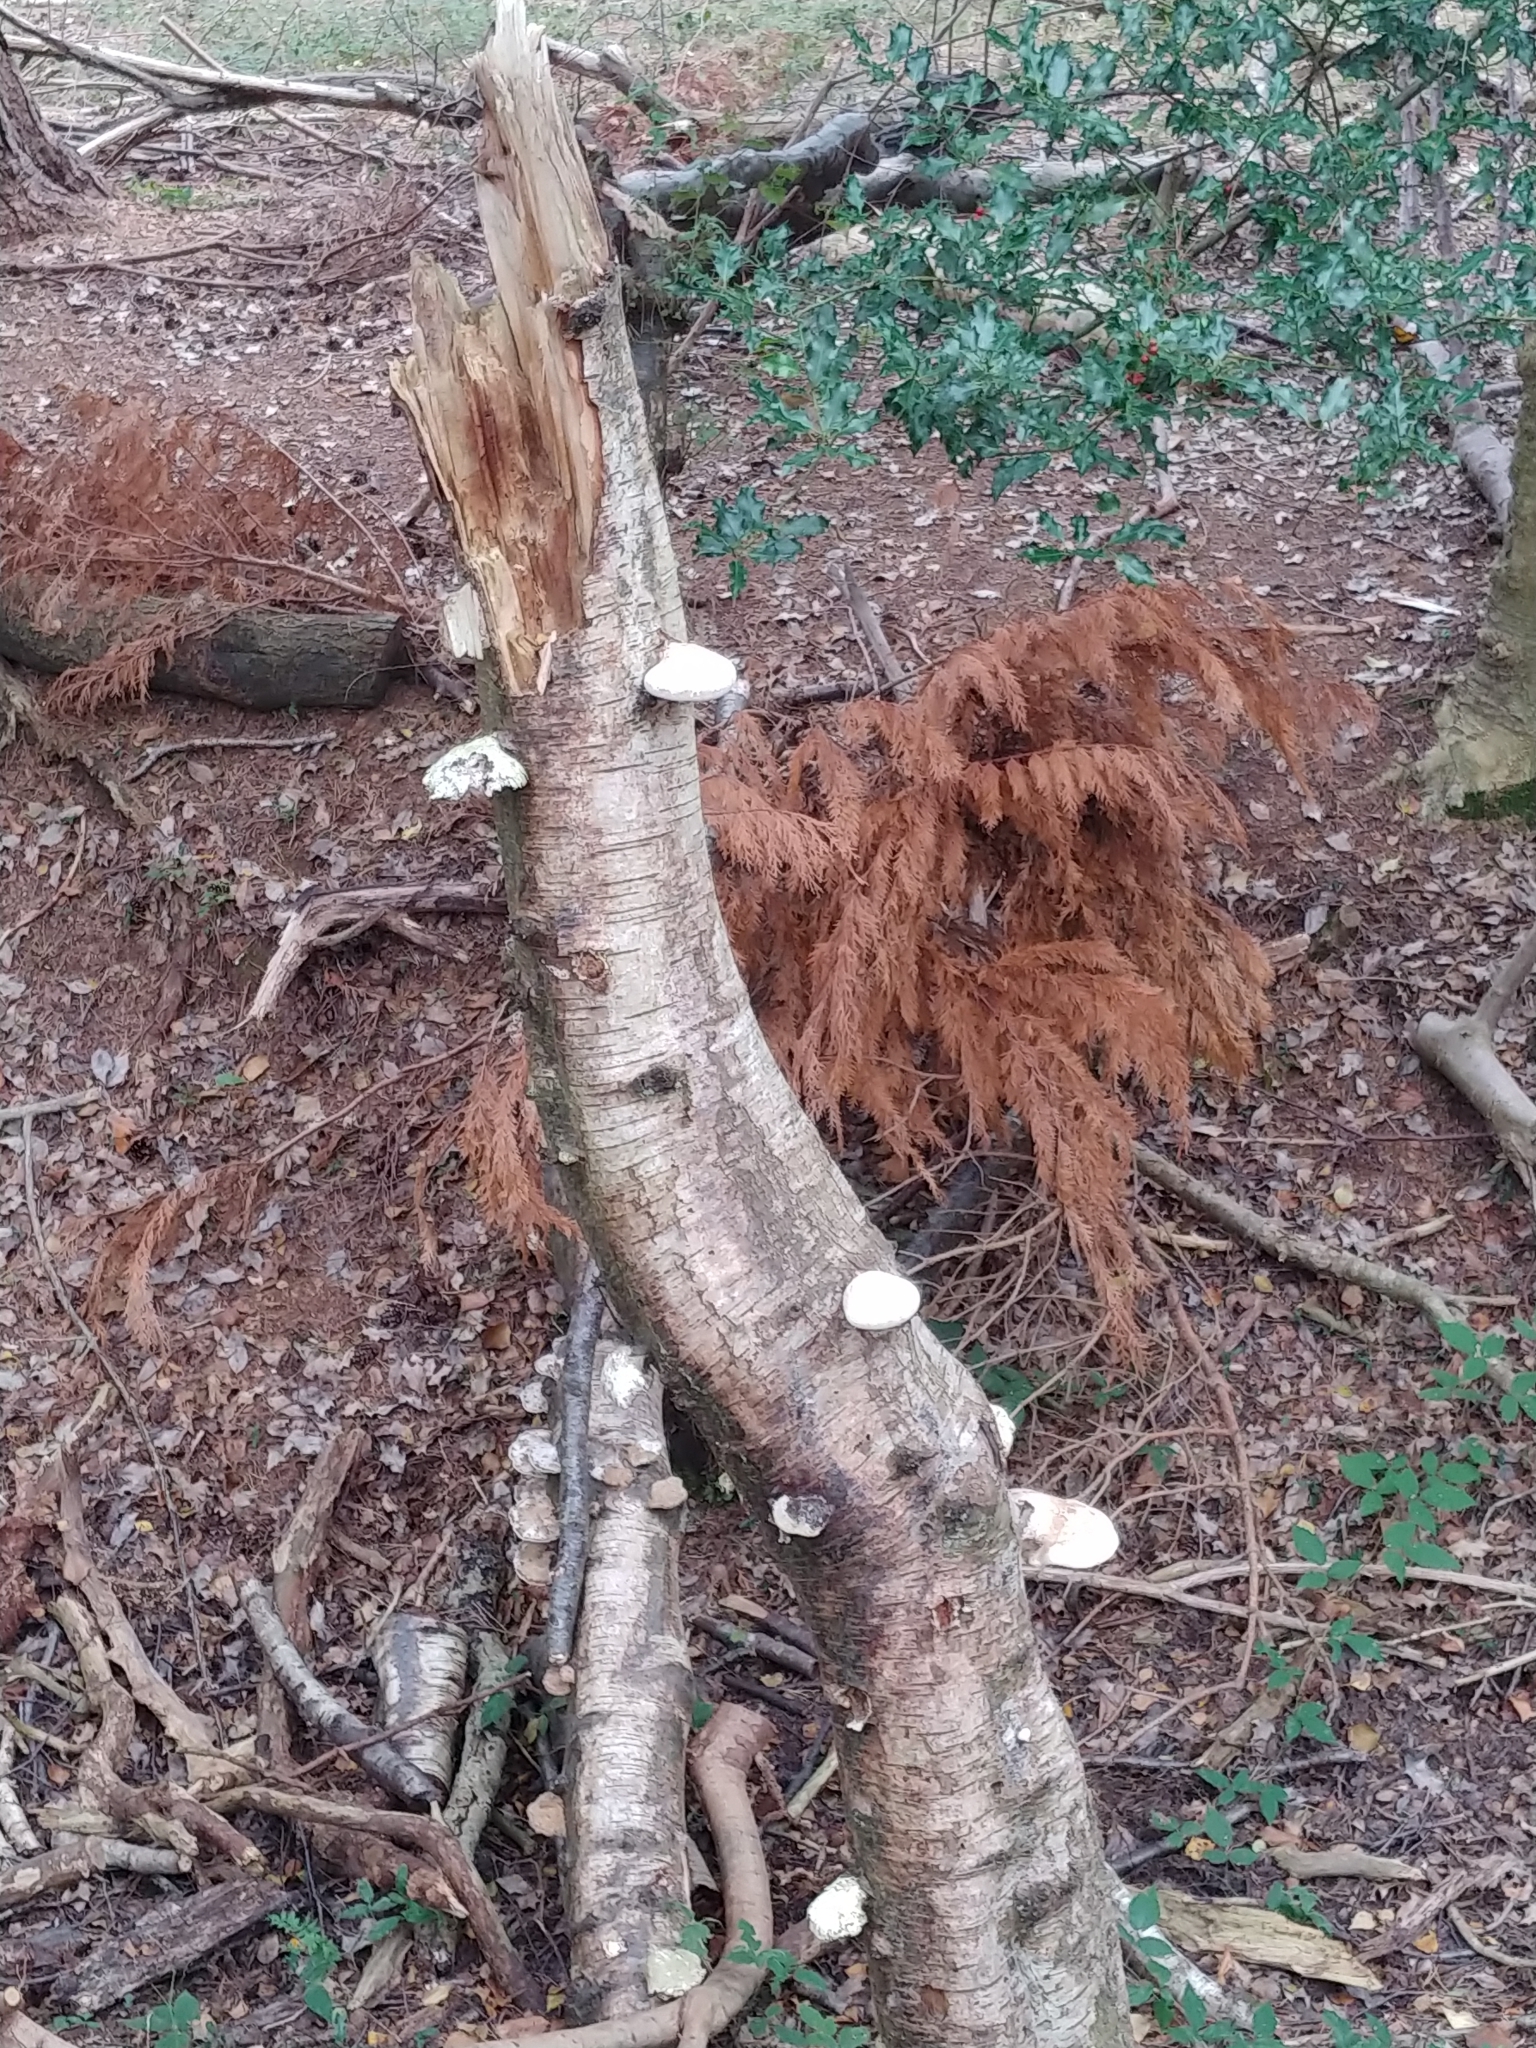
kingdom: Fungi
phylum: Basidiomycota
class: Agaricomycetes
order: Polyporales
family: Fomitopsidaceae
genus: Fomitopsis
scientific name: Fomitopsis betulina
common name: Birch polypore
